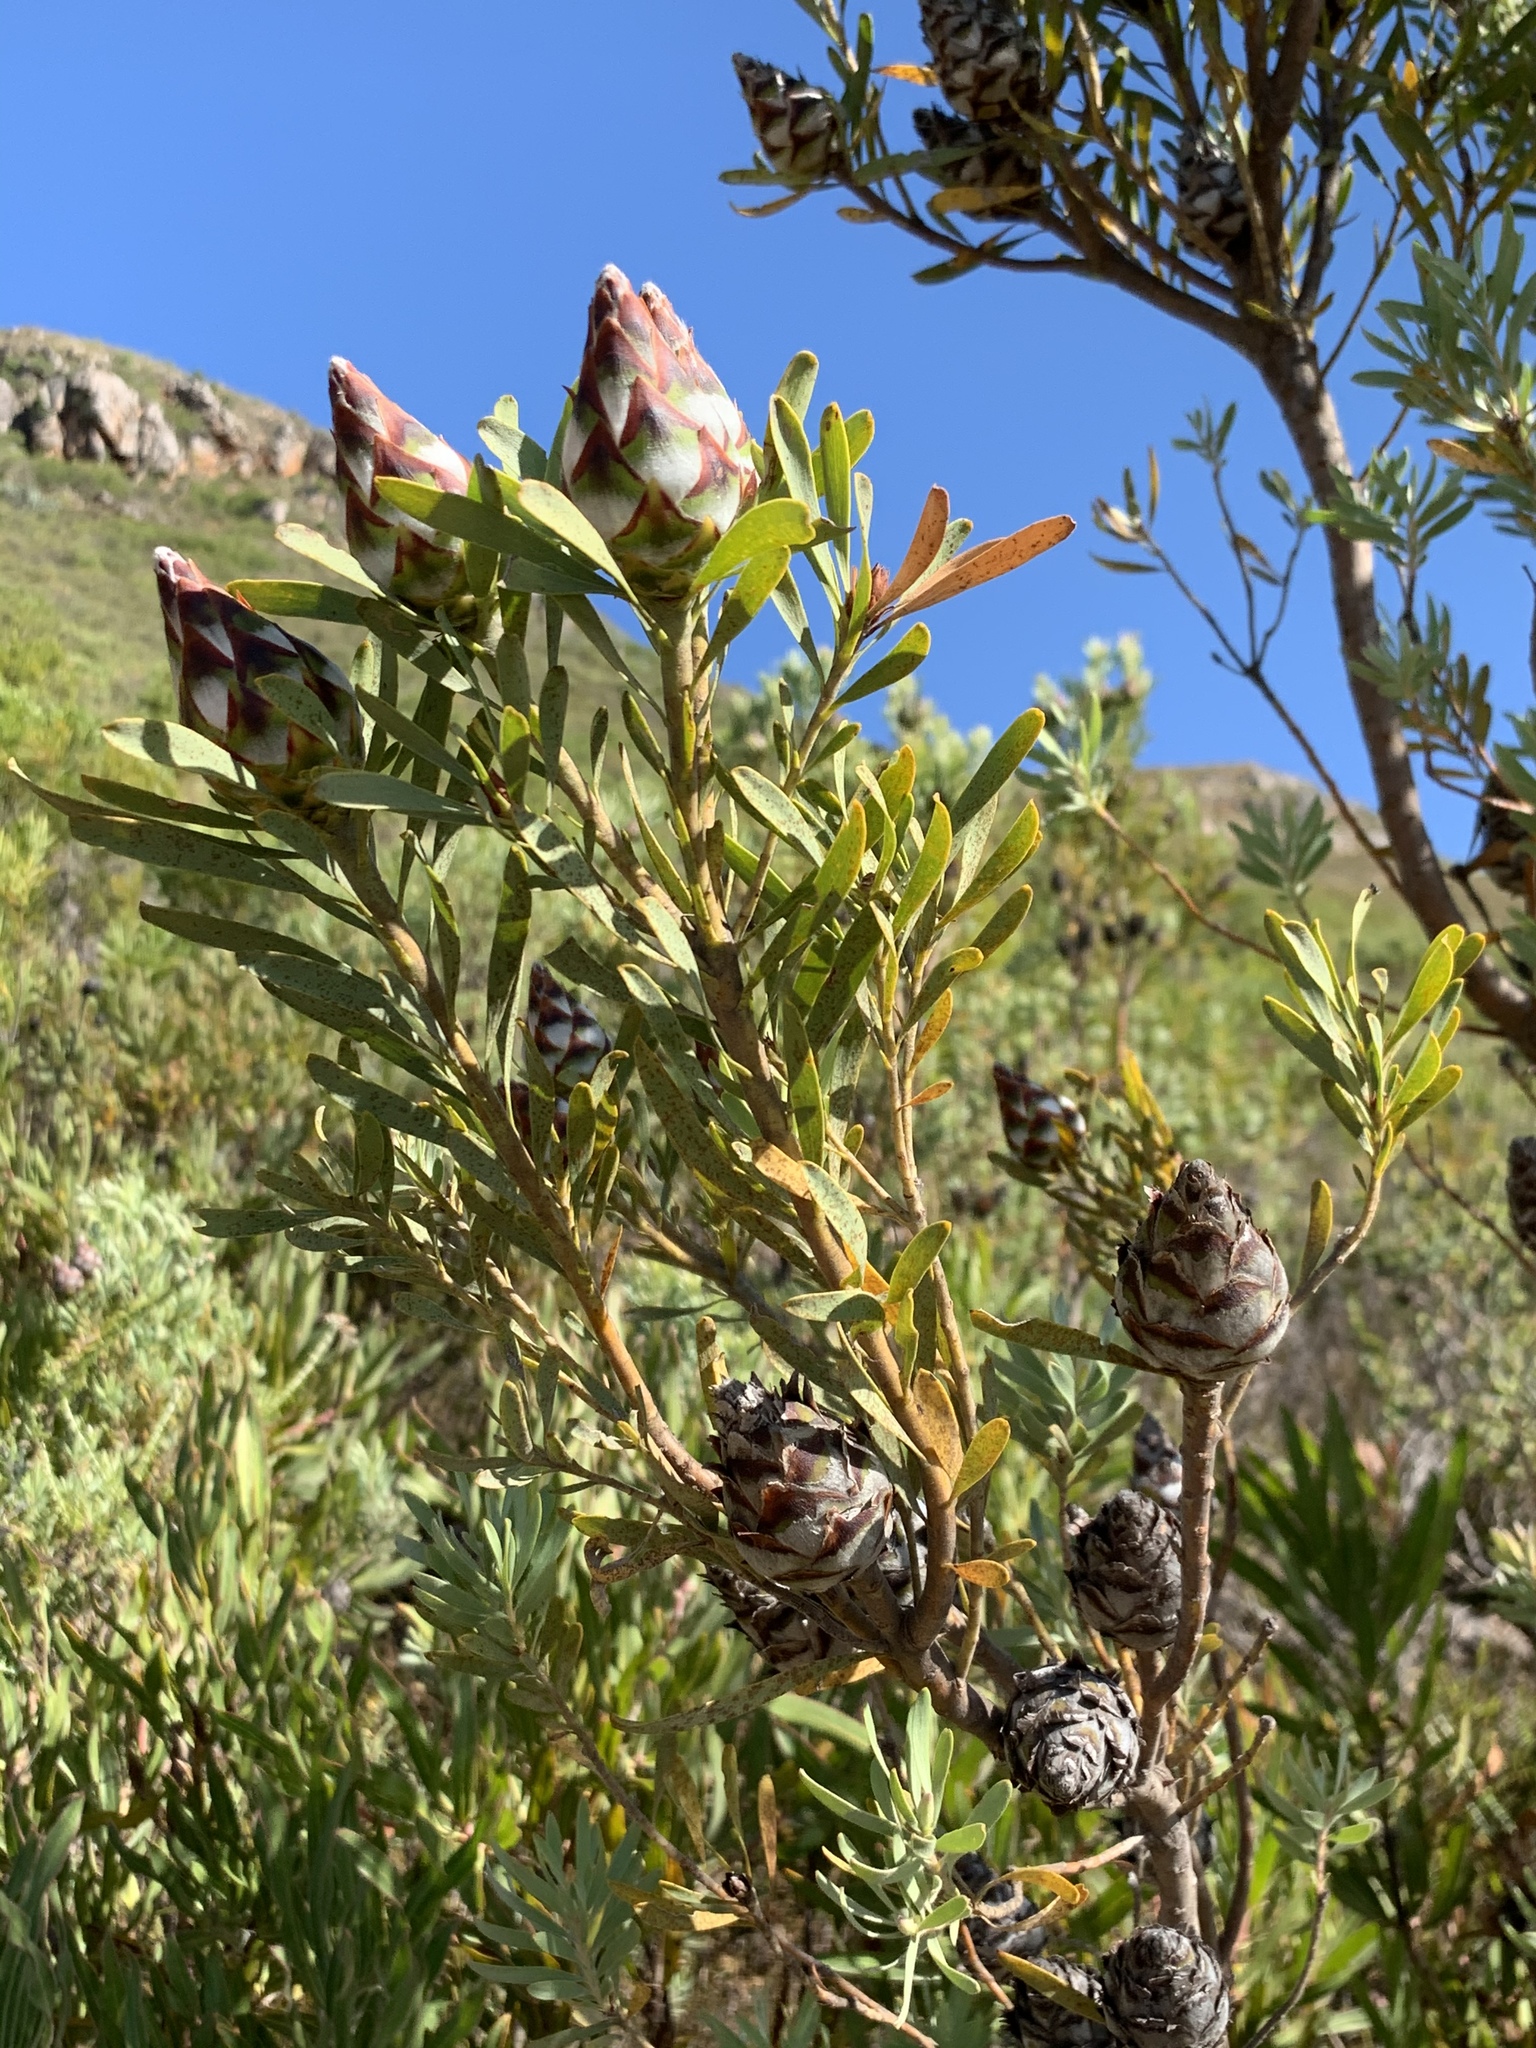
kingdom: Plantae
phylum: Tracheophyta
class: Magnoliopsida
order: Proteales
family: Proteaceae
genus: Leucadendron
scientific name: Leucadendron rubrum
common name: Spinning top
